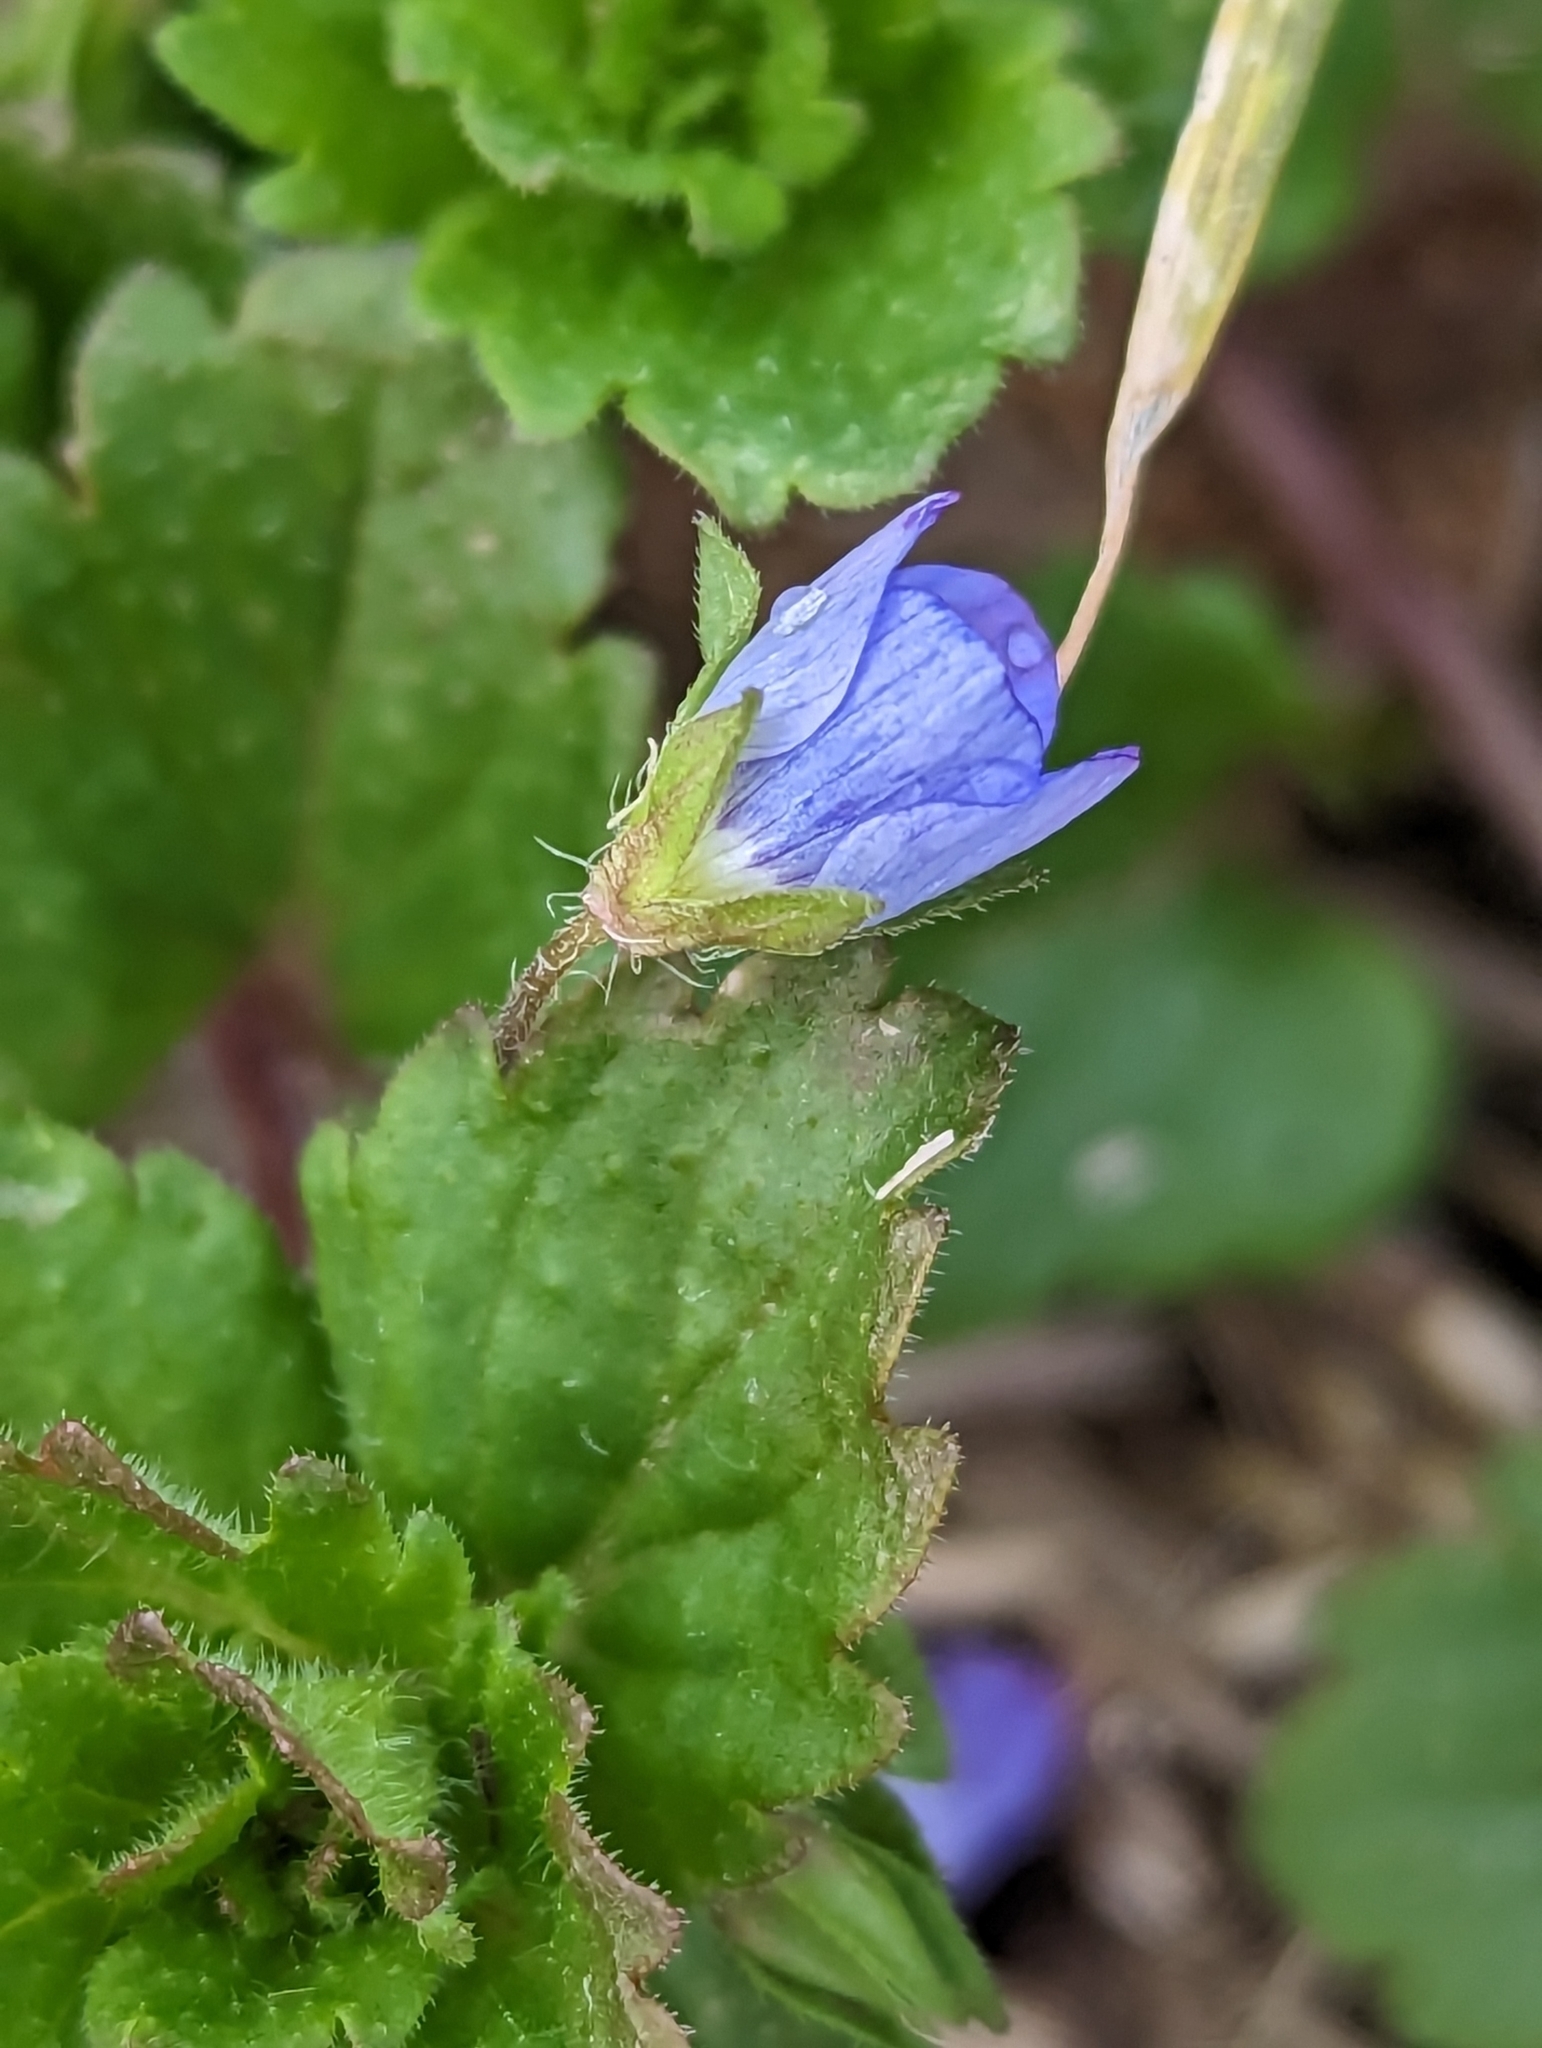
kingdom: Plantae
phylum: Tracheophyta
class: Magnoliopsida
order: Lamiales
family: Plantaginaceae
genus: Veronica
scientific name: Veronica persica
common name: Common field-speedwell
